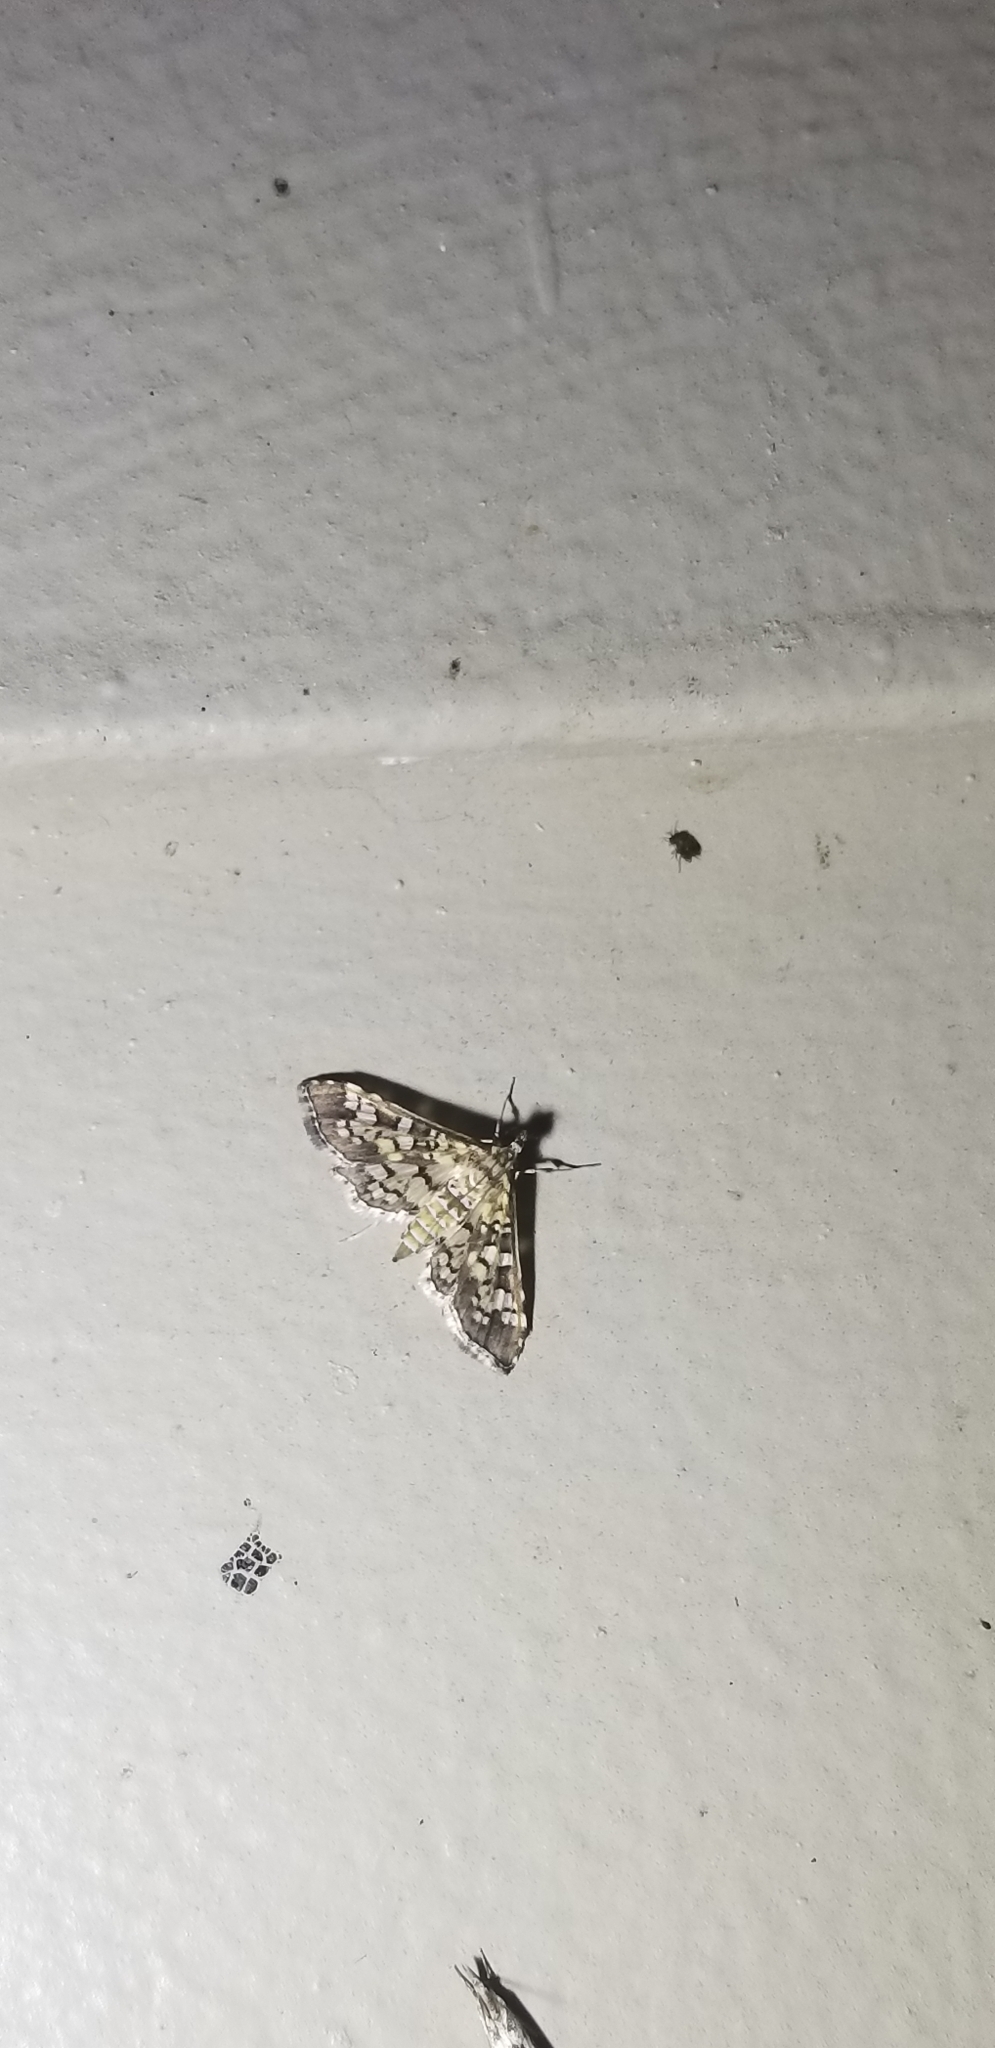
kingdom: Animalia
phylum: Arthropoda
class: Insecta
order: Lepidoptera
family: Crambidae
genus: Samea
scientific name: Samea ecclesialis
